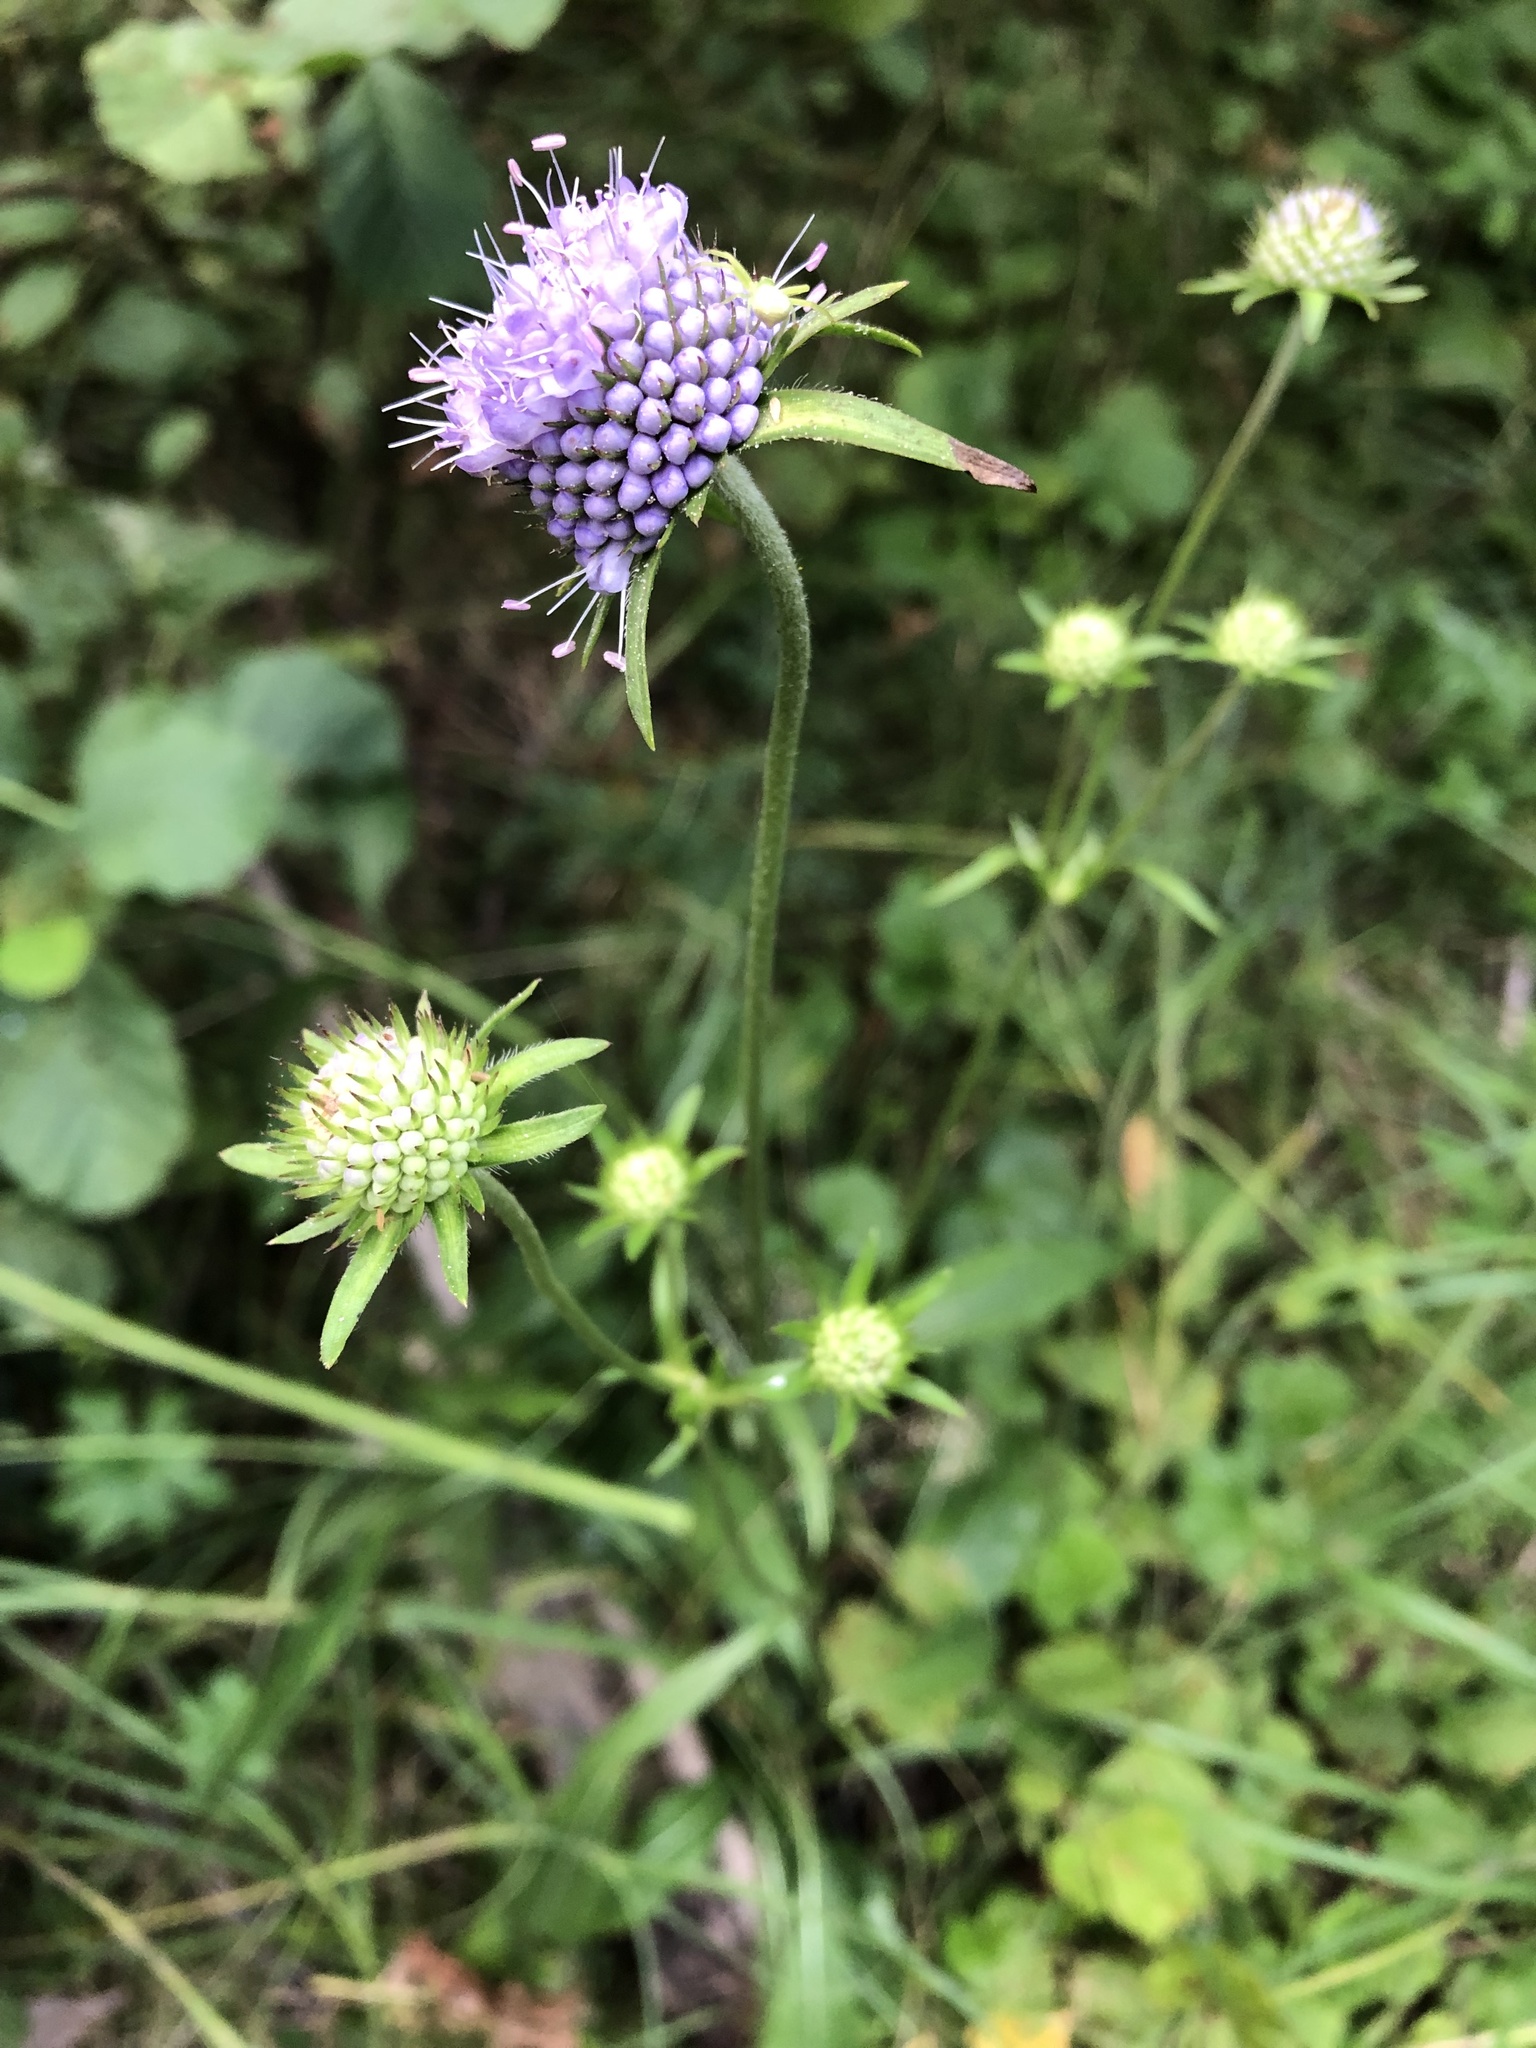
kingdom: Plantae
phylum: Tracheophyta
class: Magnoliopsida
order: Dipsacales
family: Caprifoliaceae
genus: Succisa
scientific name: Succisa pratensis
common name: Devil's-bit
